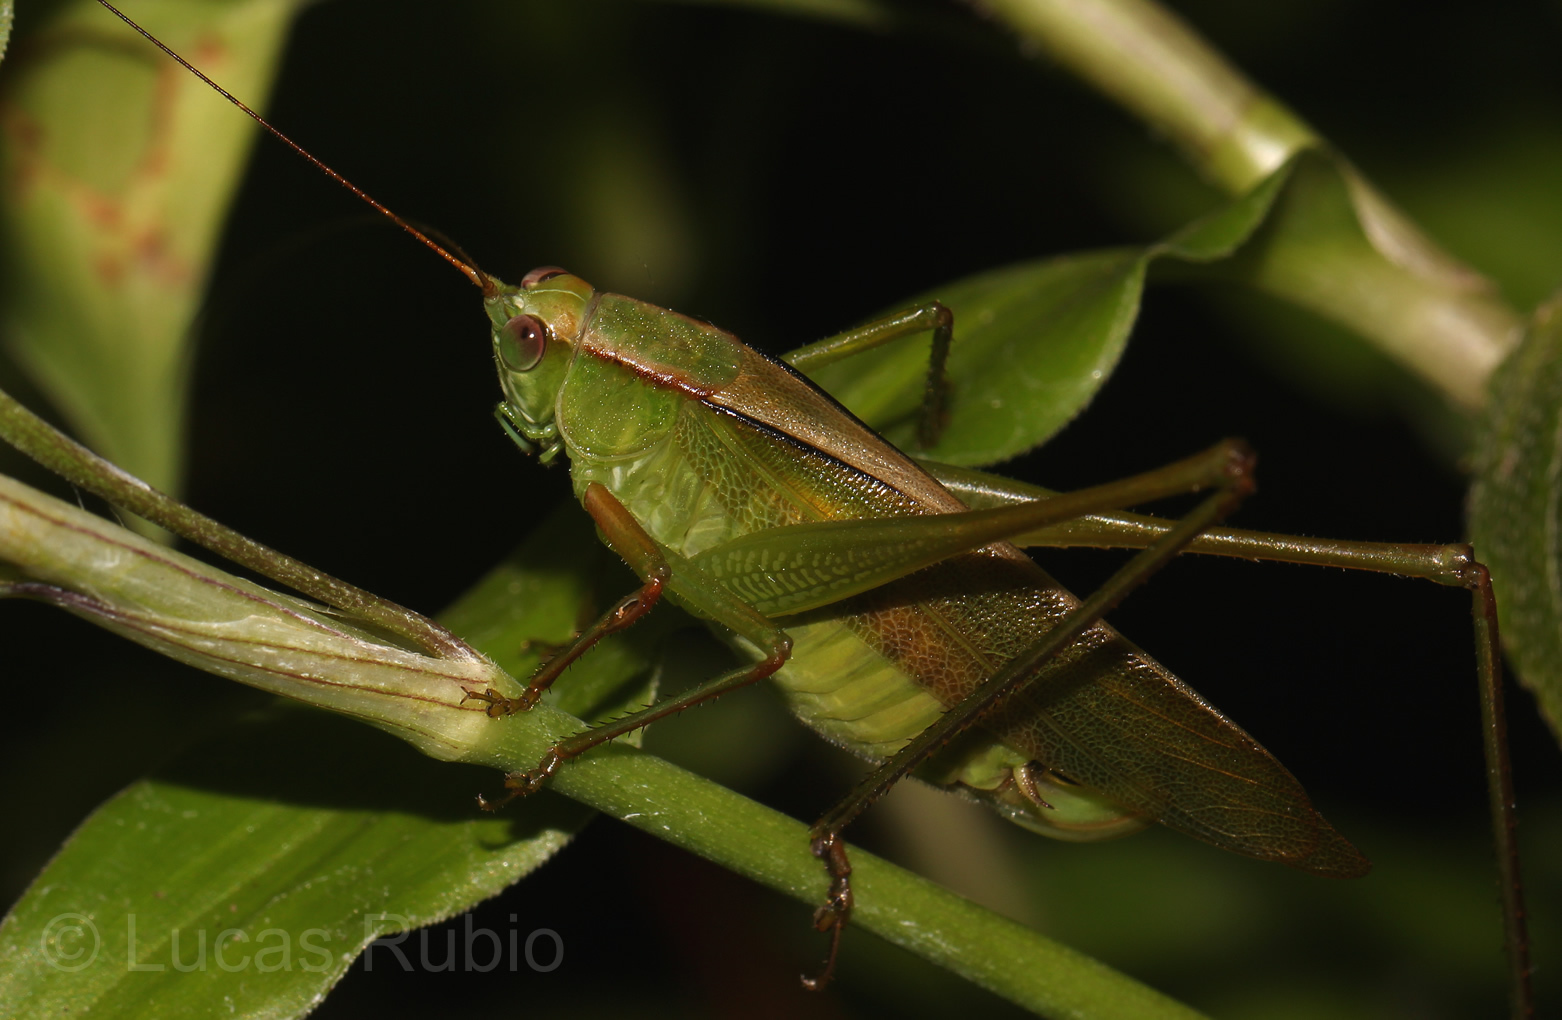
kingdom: Animalia
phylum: Arthropoda
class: Insecta
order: Orthoptera
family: Tettigoniidae
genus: Theudoria
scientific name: Theudoria melanocnemis
